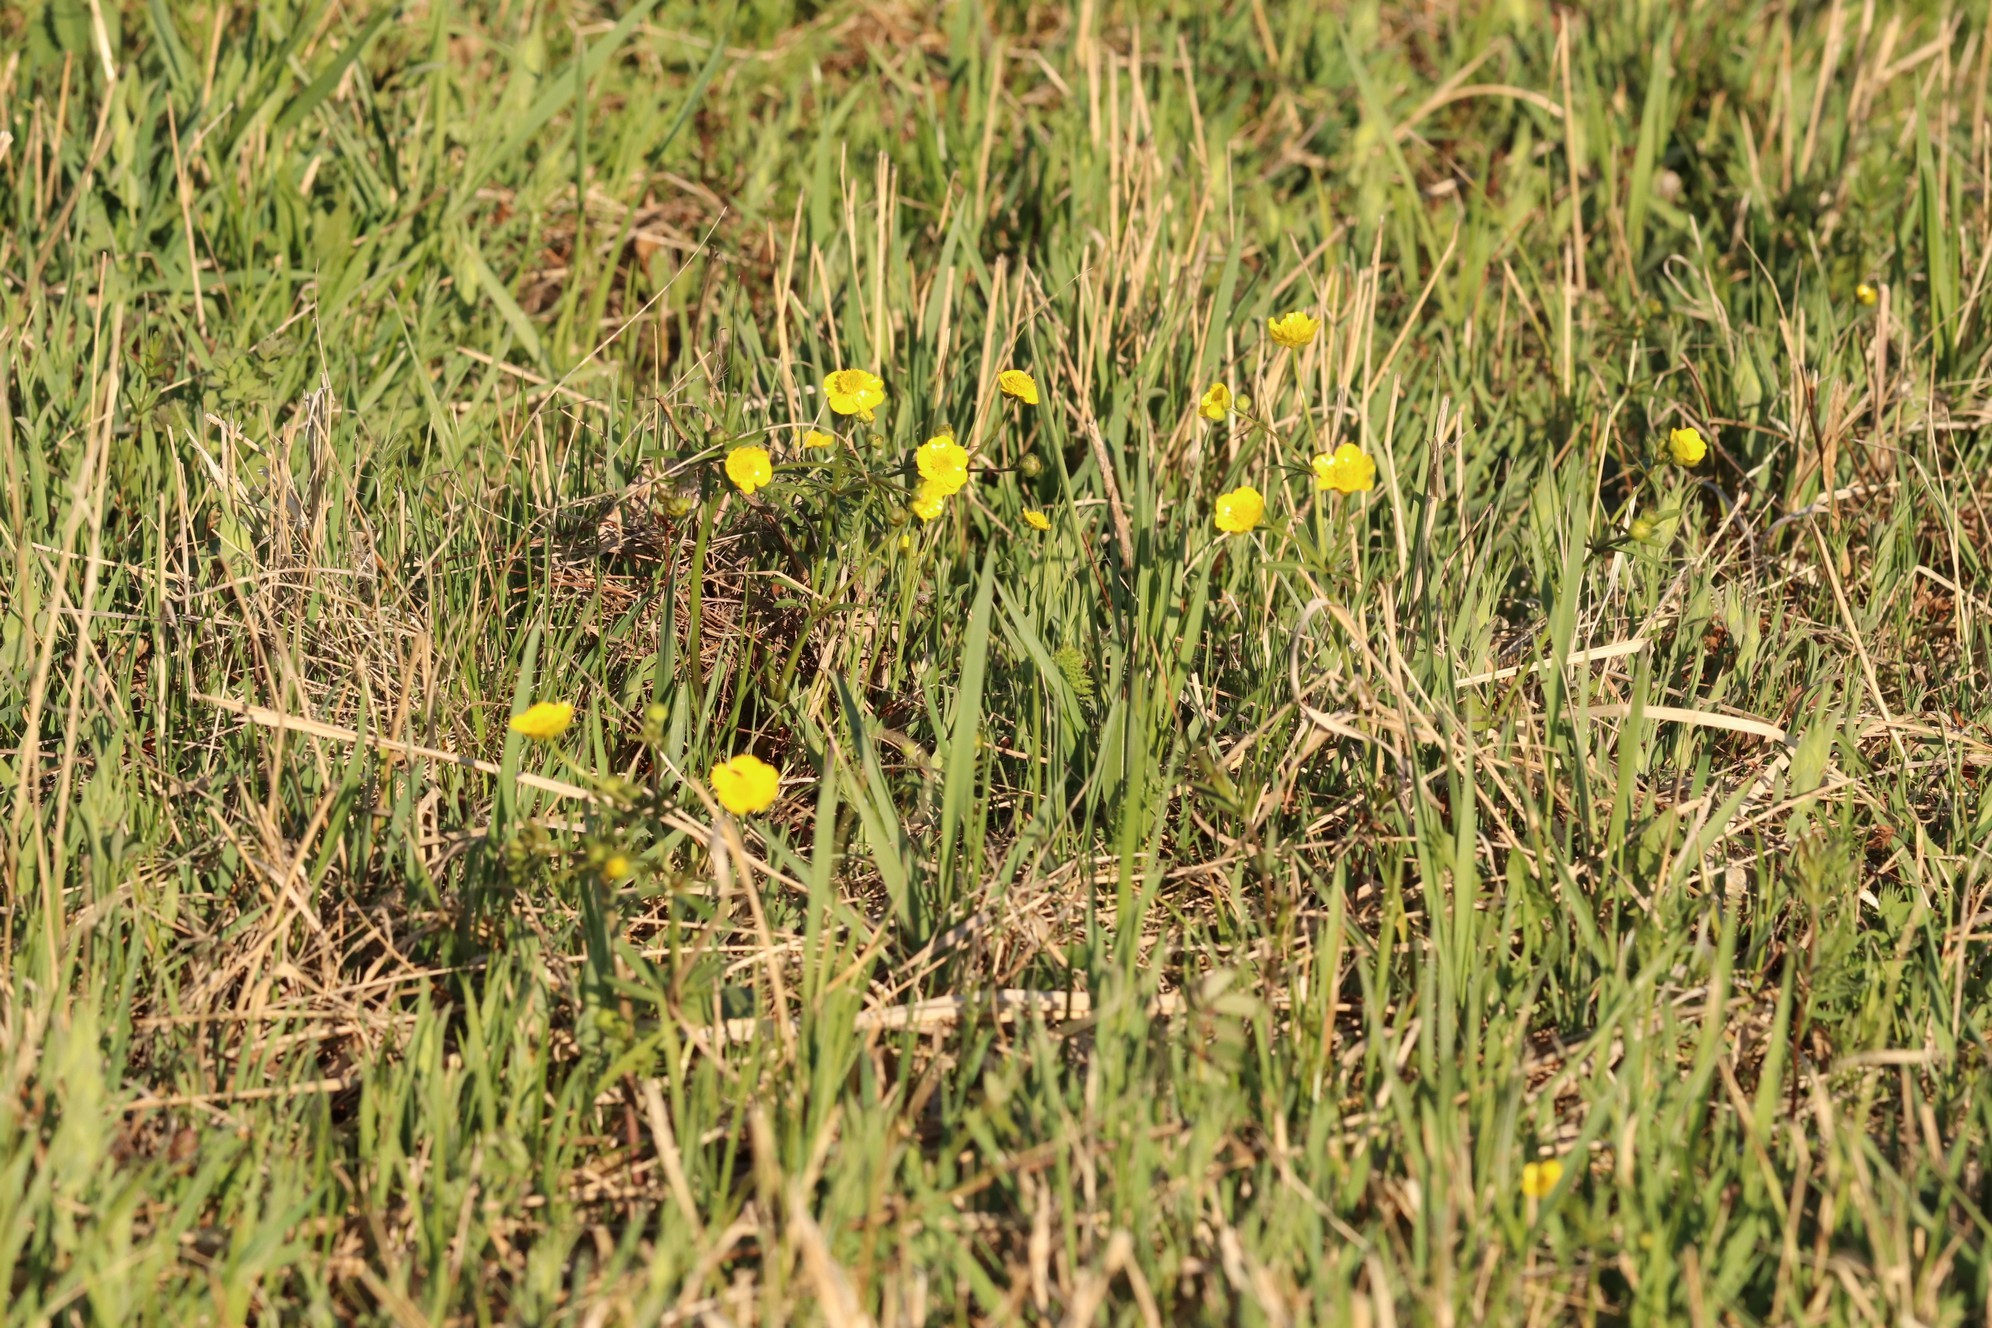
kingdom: Plantae
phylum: Tracheophyta
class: Magnoliopsida
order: Ranunculales
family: Ranunculaceae
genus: Ranunculus
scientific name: Ranunculus monophyllus
